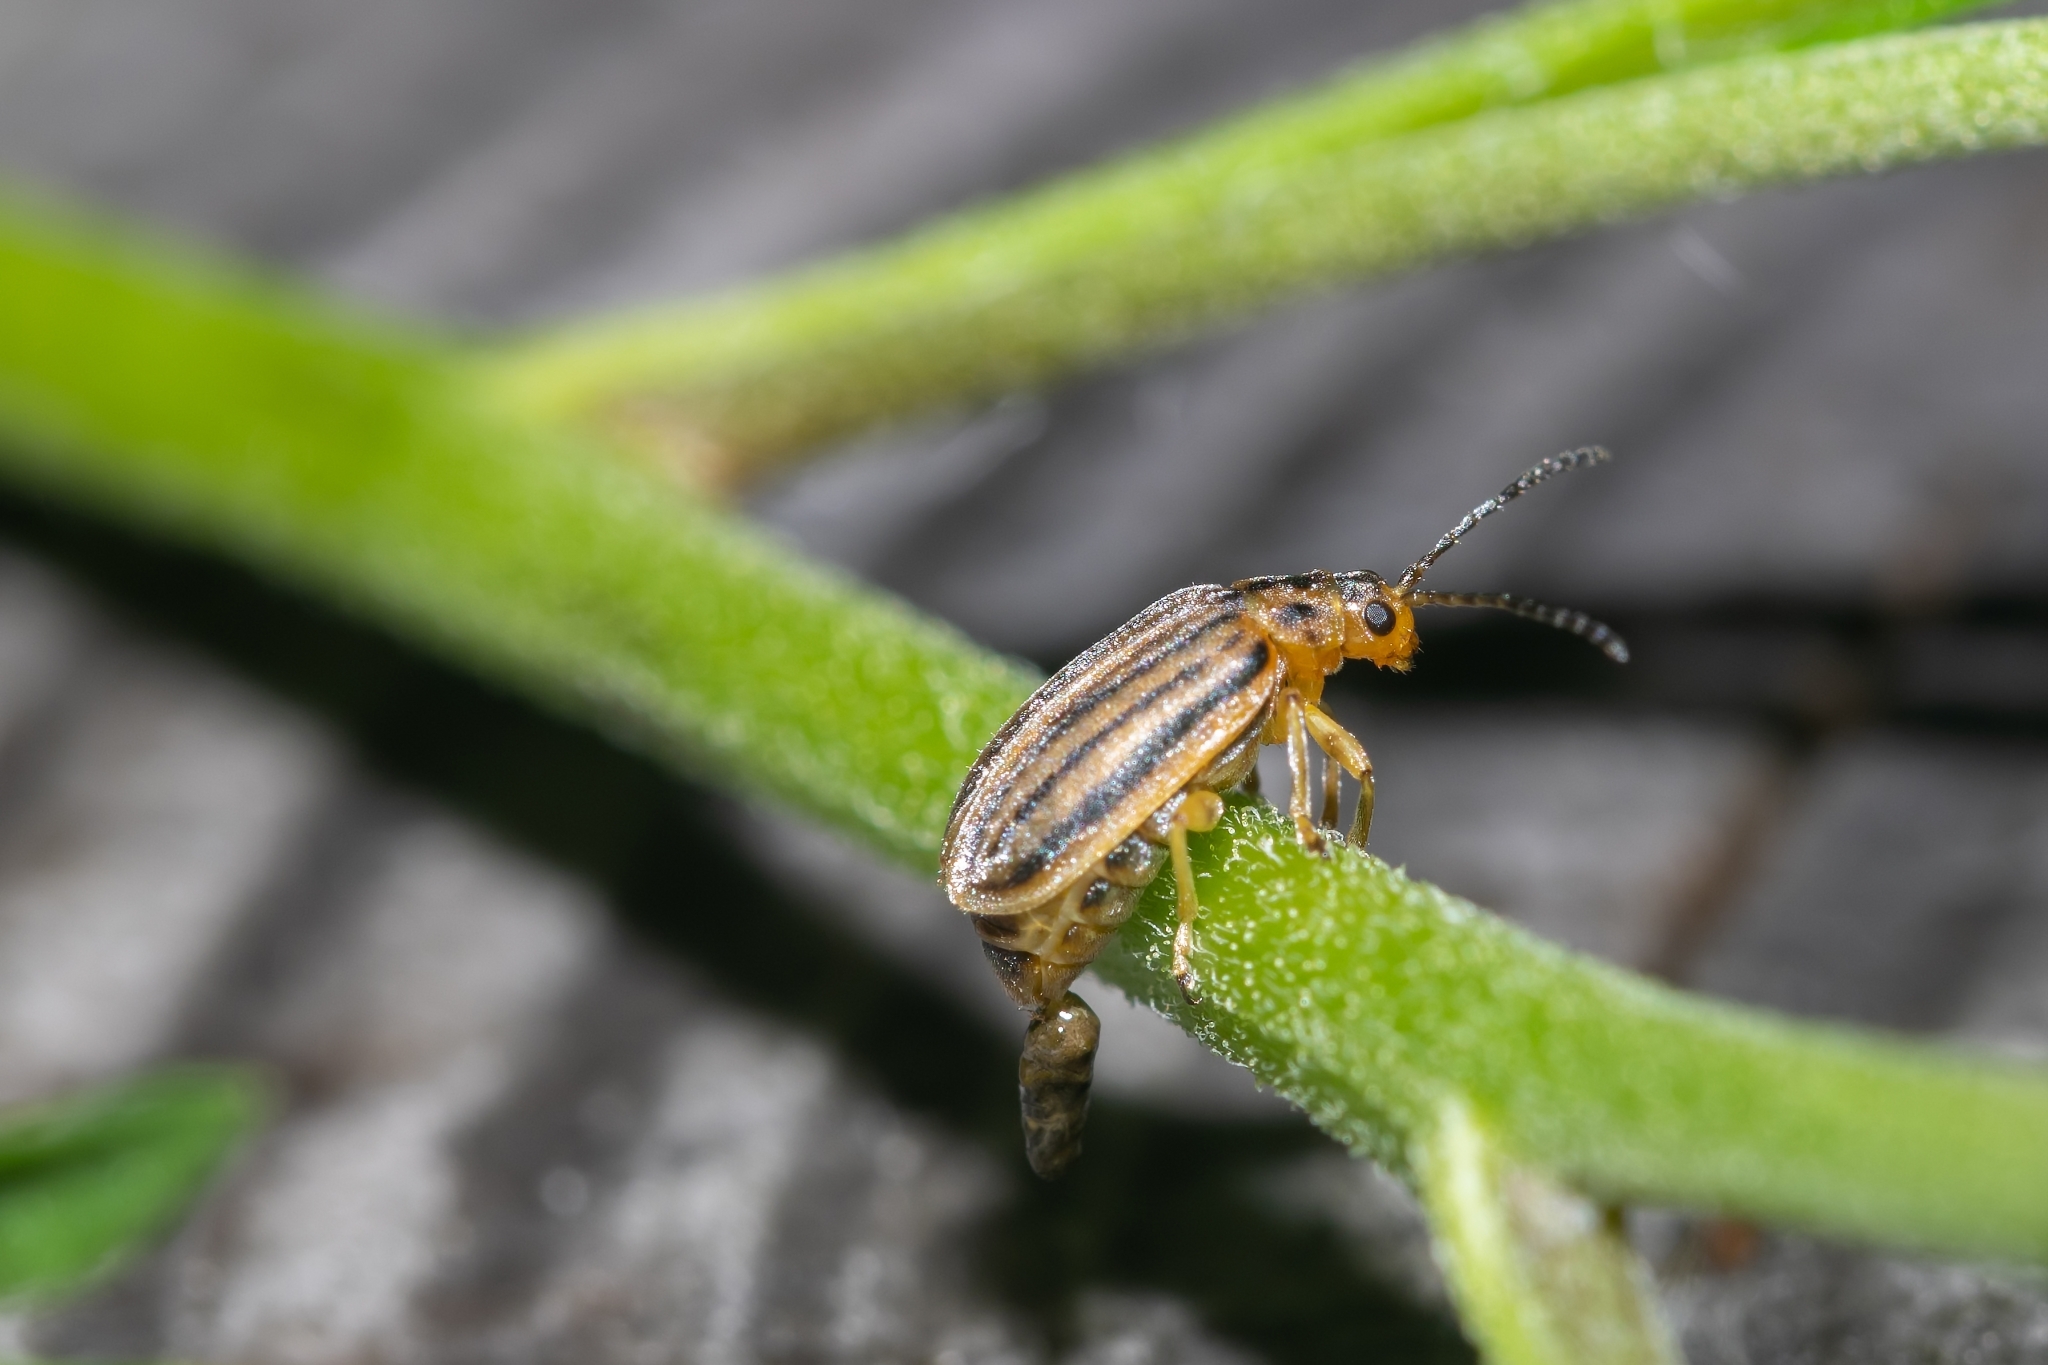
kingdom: Animalia
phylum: Arthropoda
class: Insecta
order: Coleoptera
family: Chrysomelidae
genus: Ophraella
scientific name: Ophraella slobodkini
